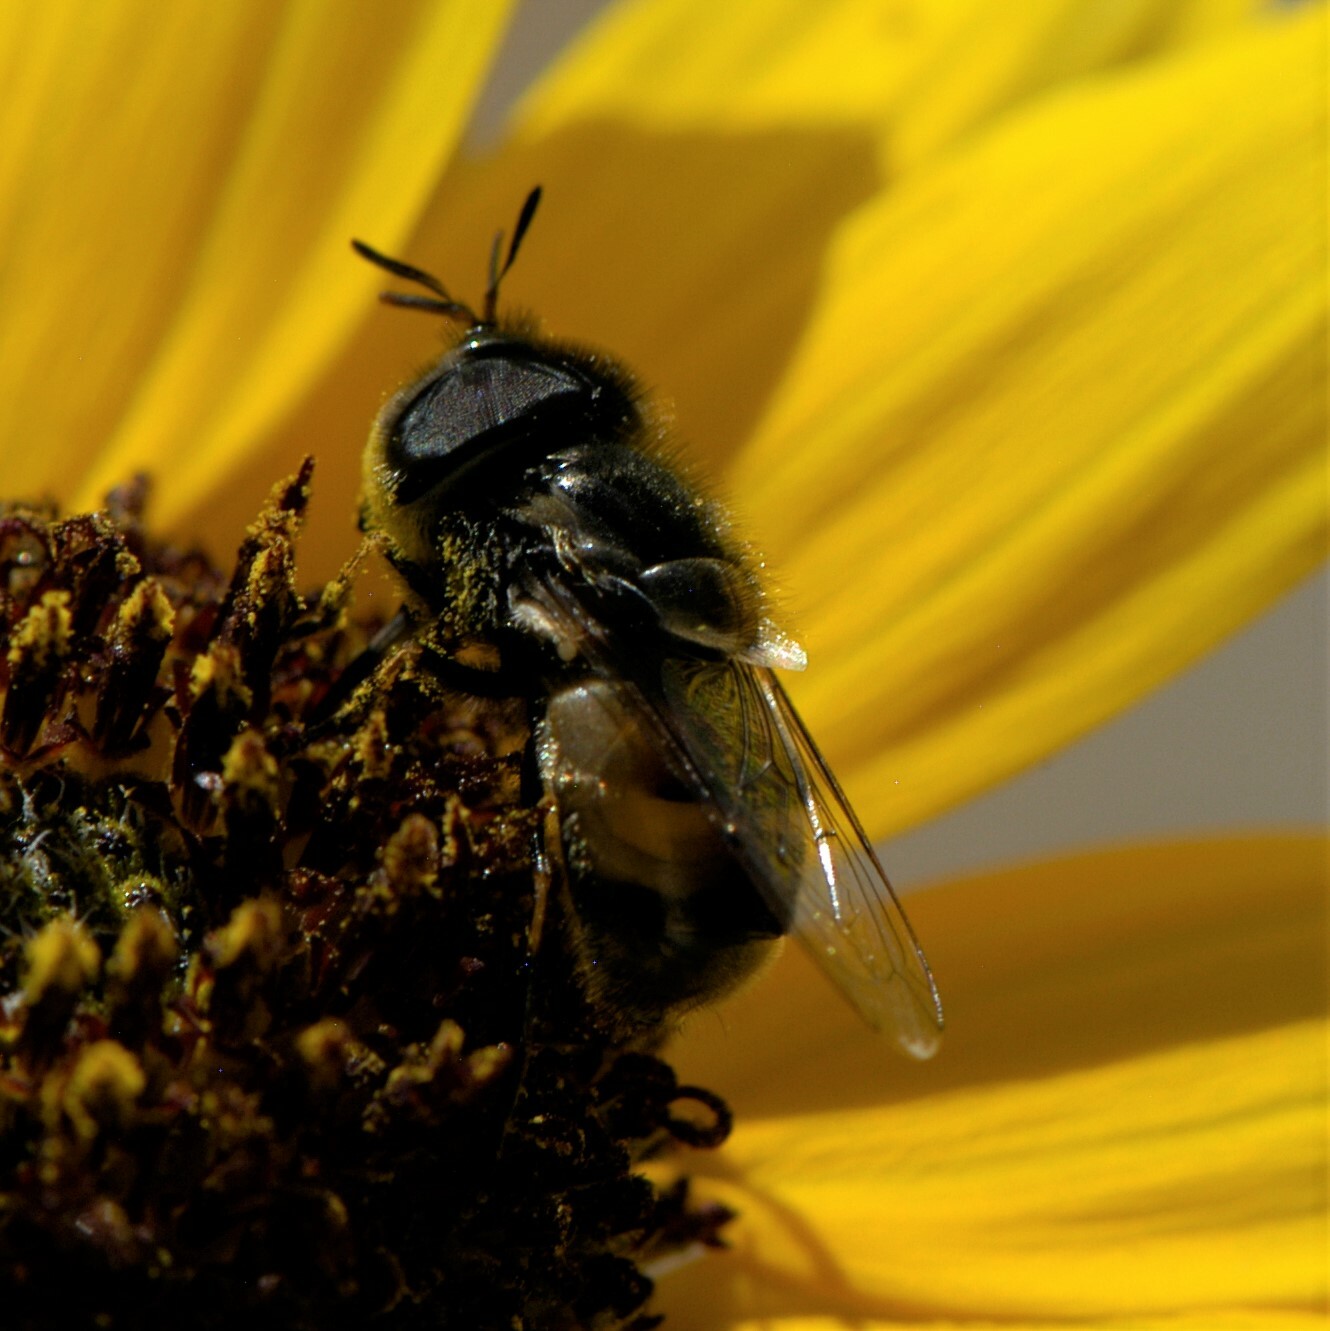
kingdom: Animalia
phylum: Arthropoda
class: Insecta
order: Diptera
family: Syrphidae
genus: Copestylum
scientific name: Copestylum lentum
